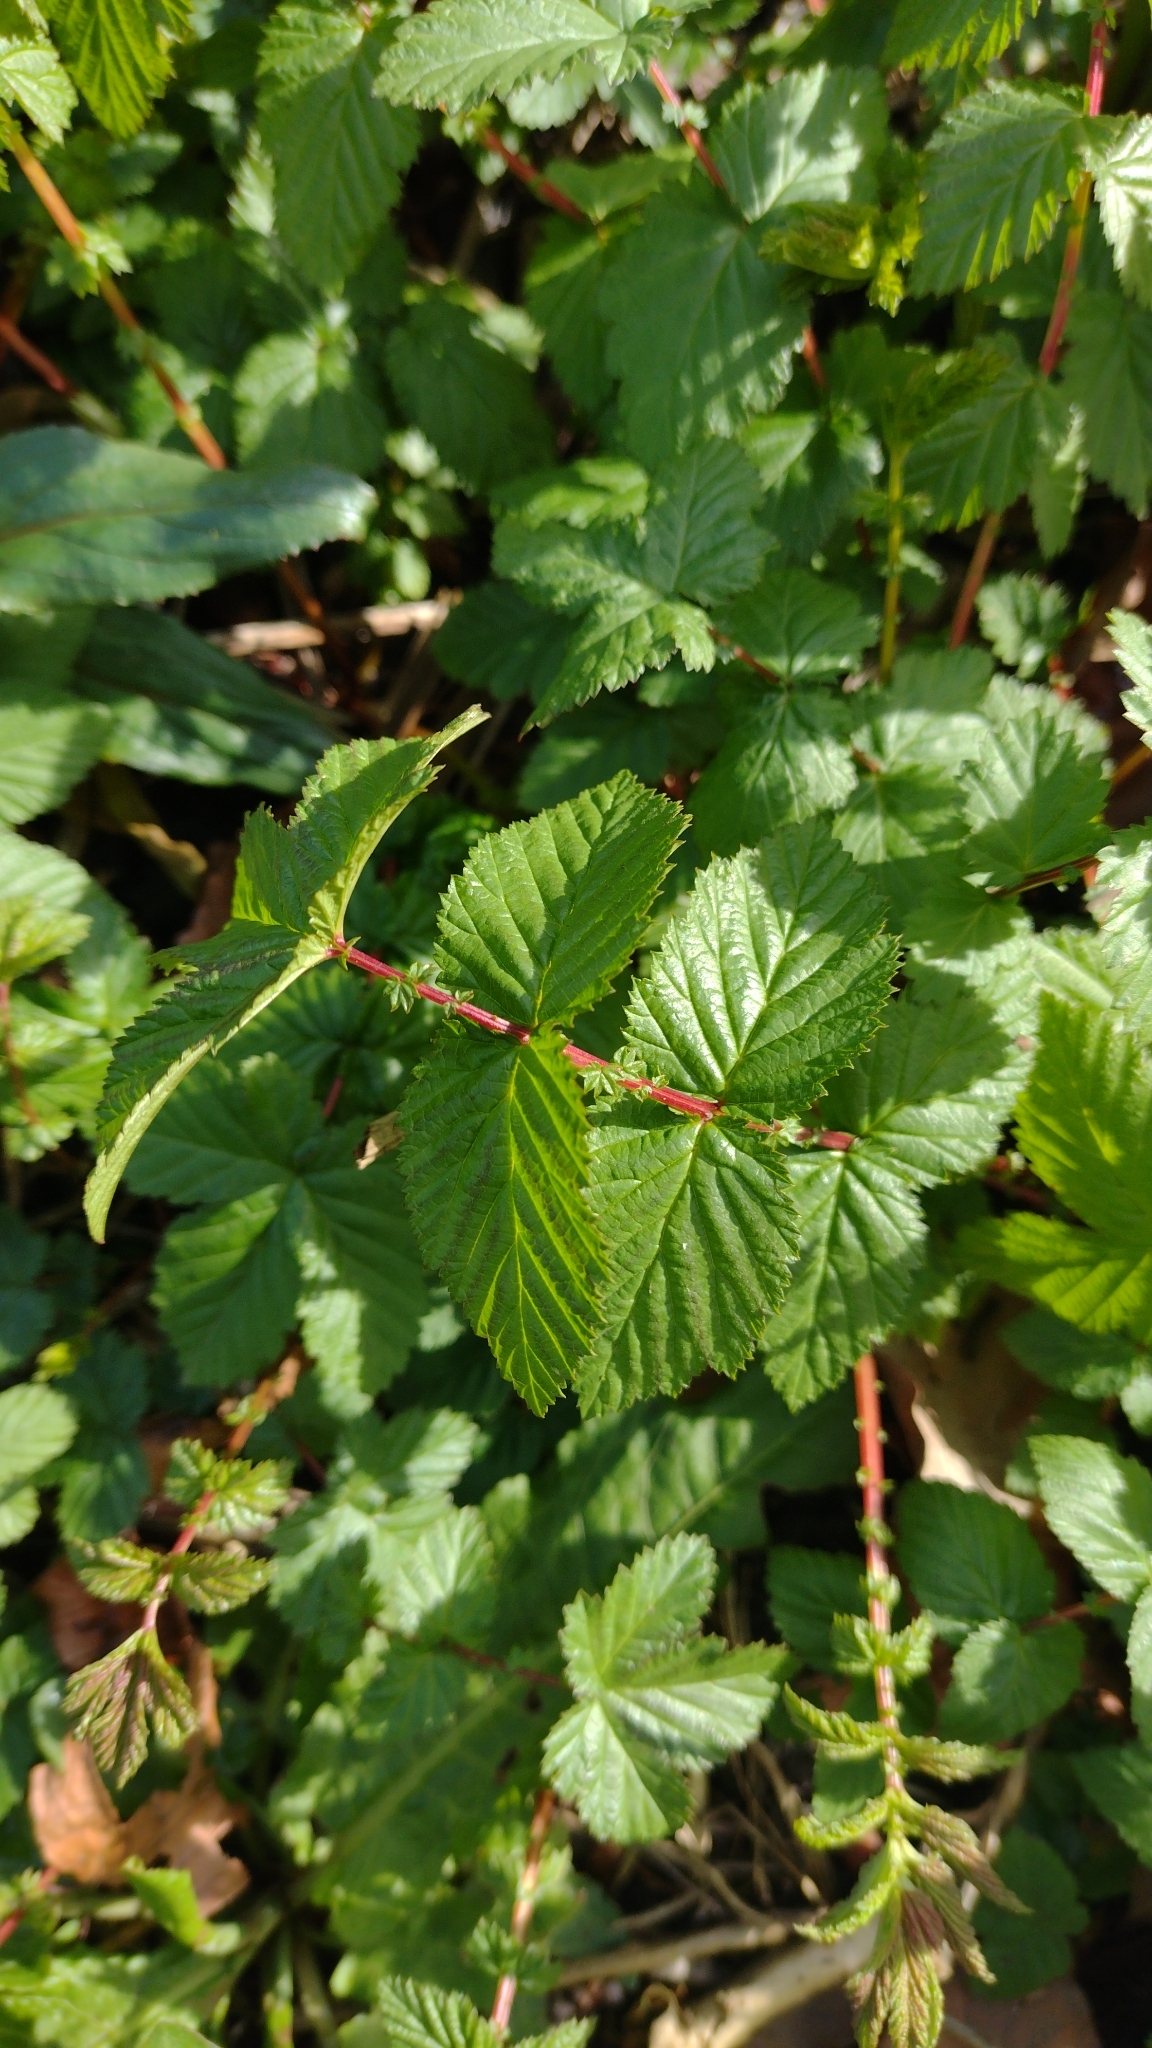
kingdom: Plantae
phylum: Tracheophyta
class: Magnoliopsida
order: Rosales
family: Rosaceae
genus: Filipendula
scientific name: Filipendula ulmaria
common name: Meadowsweet
